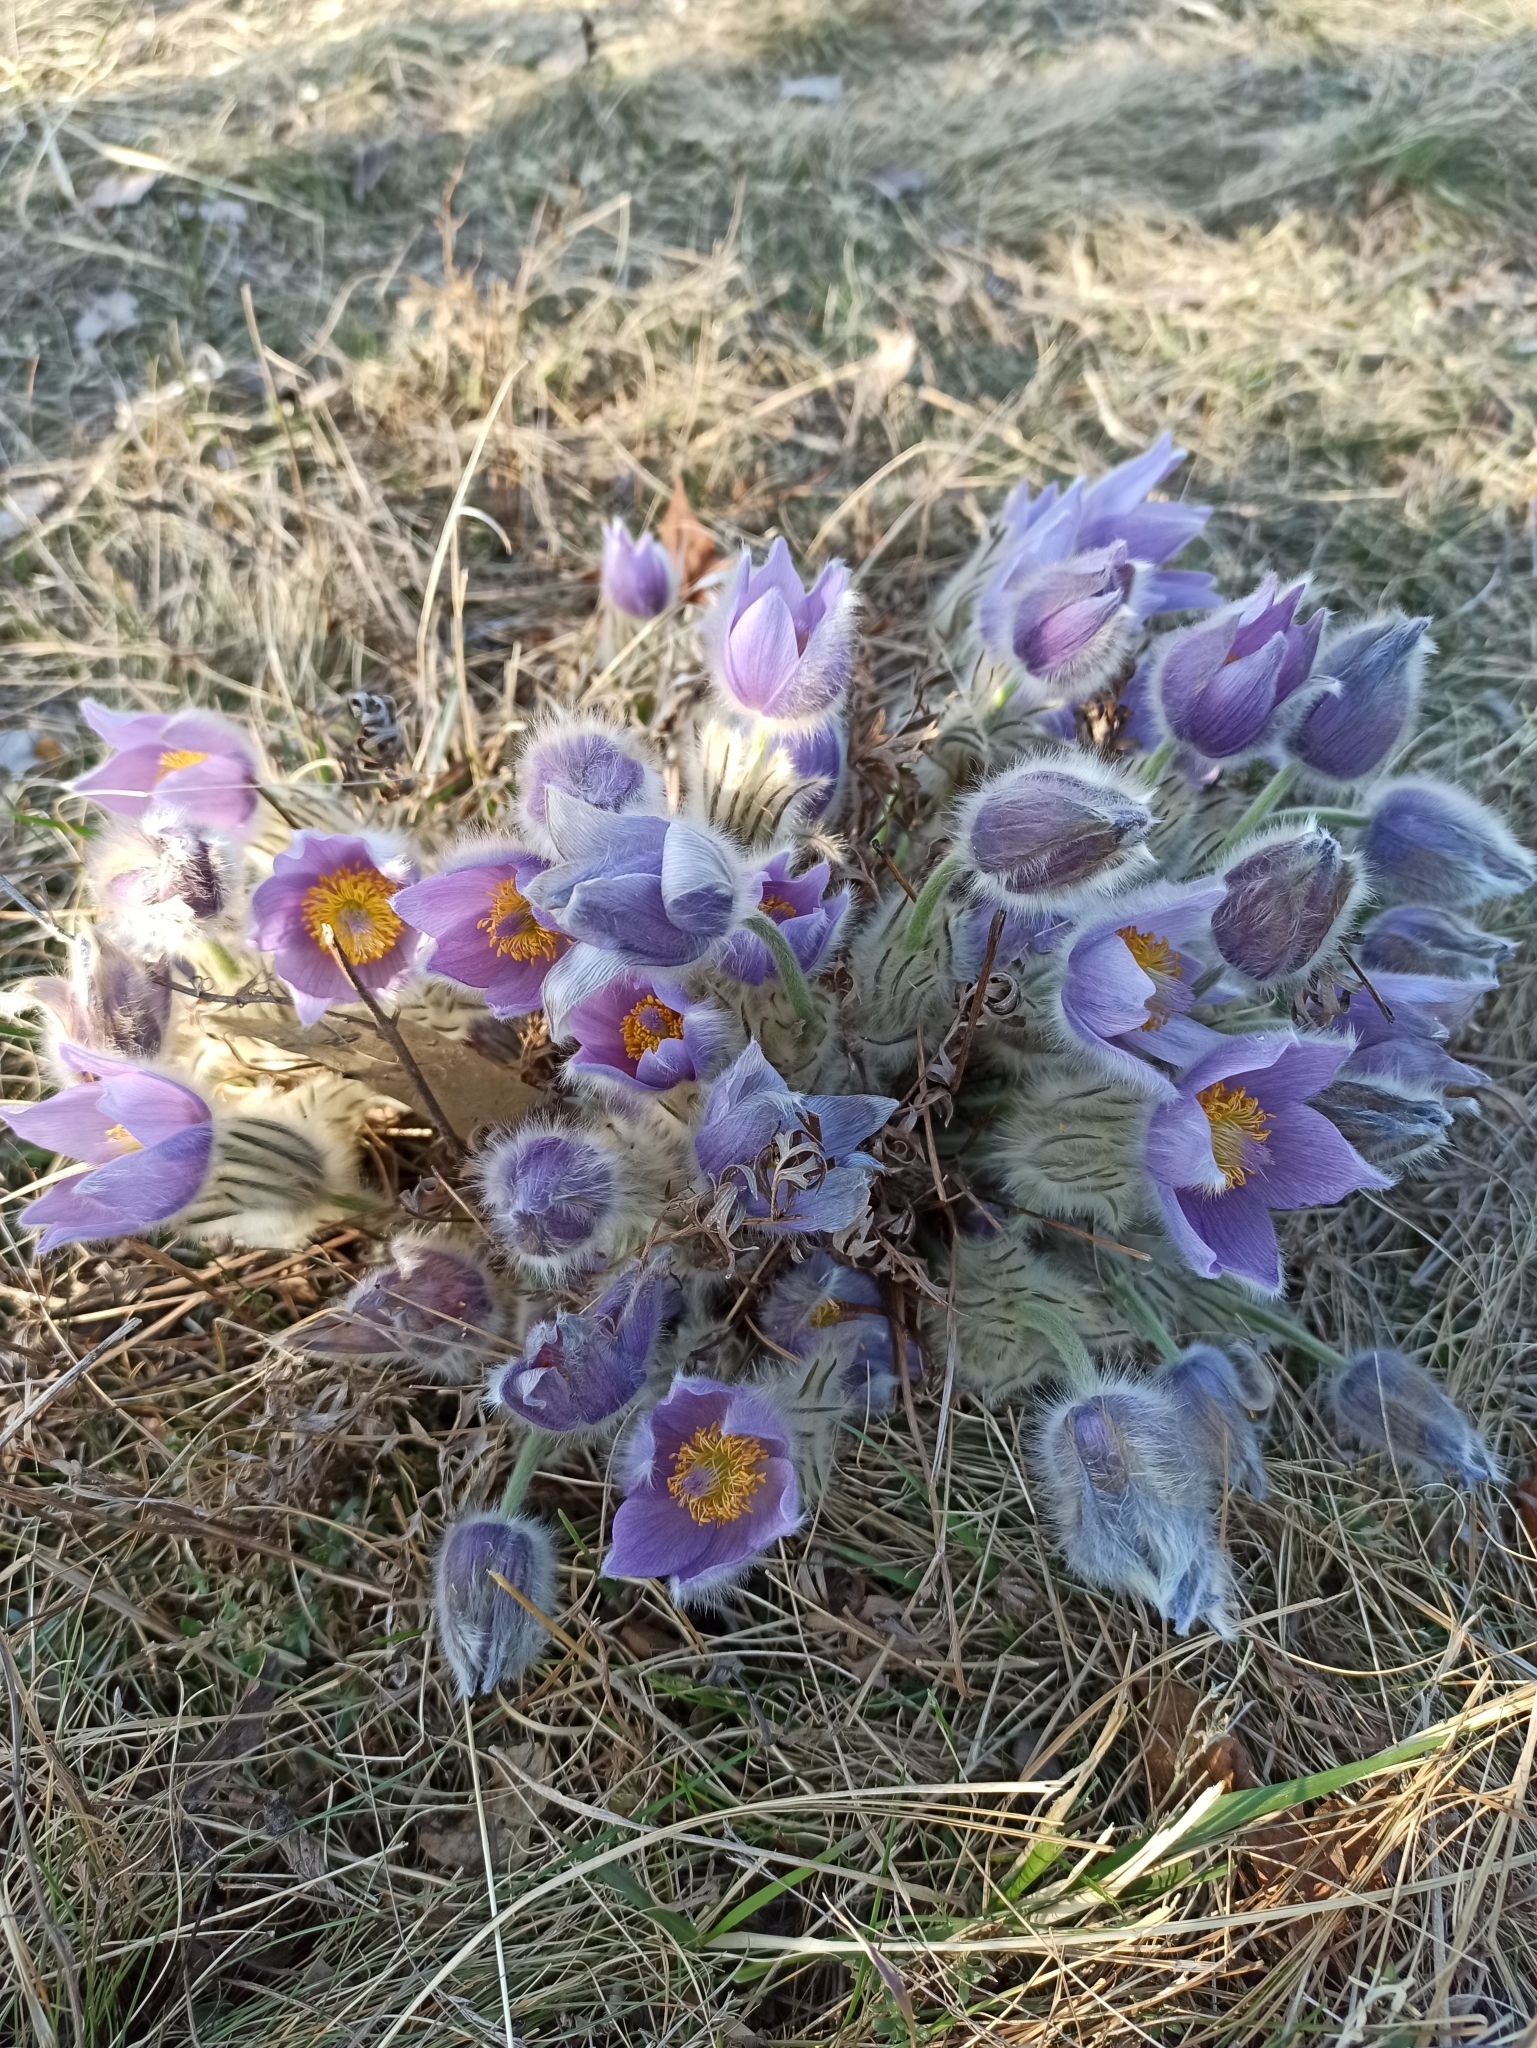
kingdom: Plantae
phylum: Tracheophyta
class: Magnoliopsida
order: Ranunculales
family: Ranunculaceae
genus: Pulsatilla
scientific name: Pulsatilla grandis
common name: Greater pasque flower
